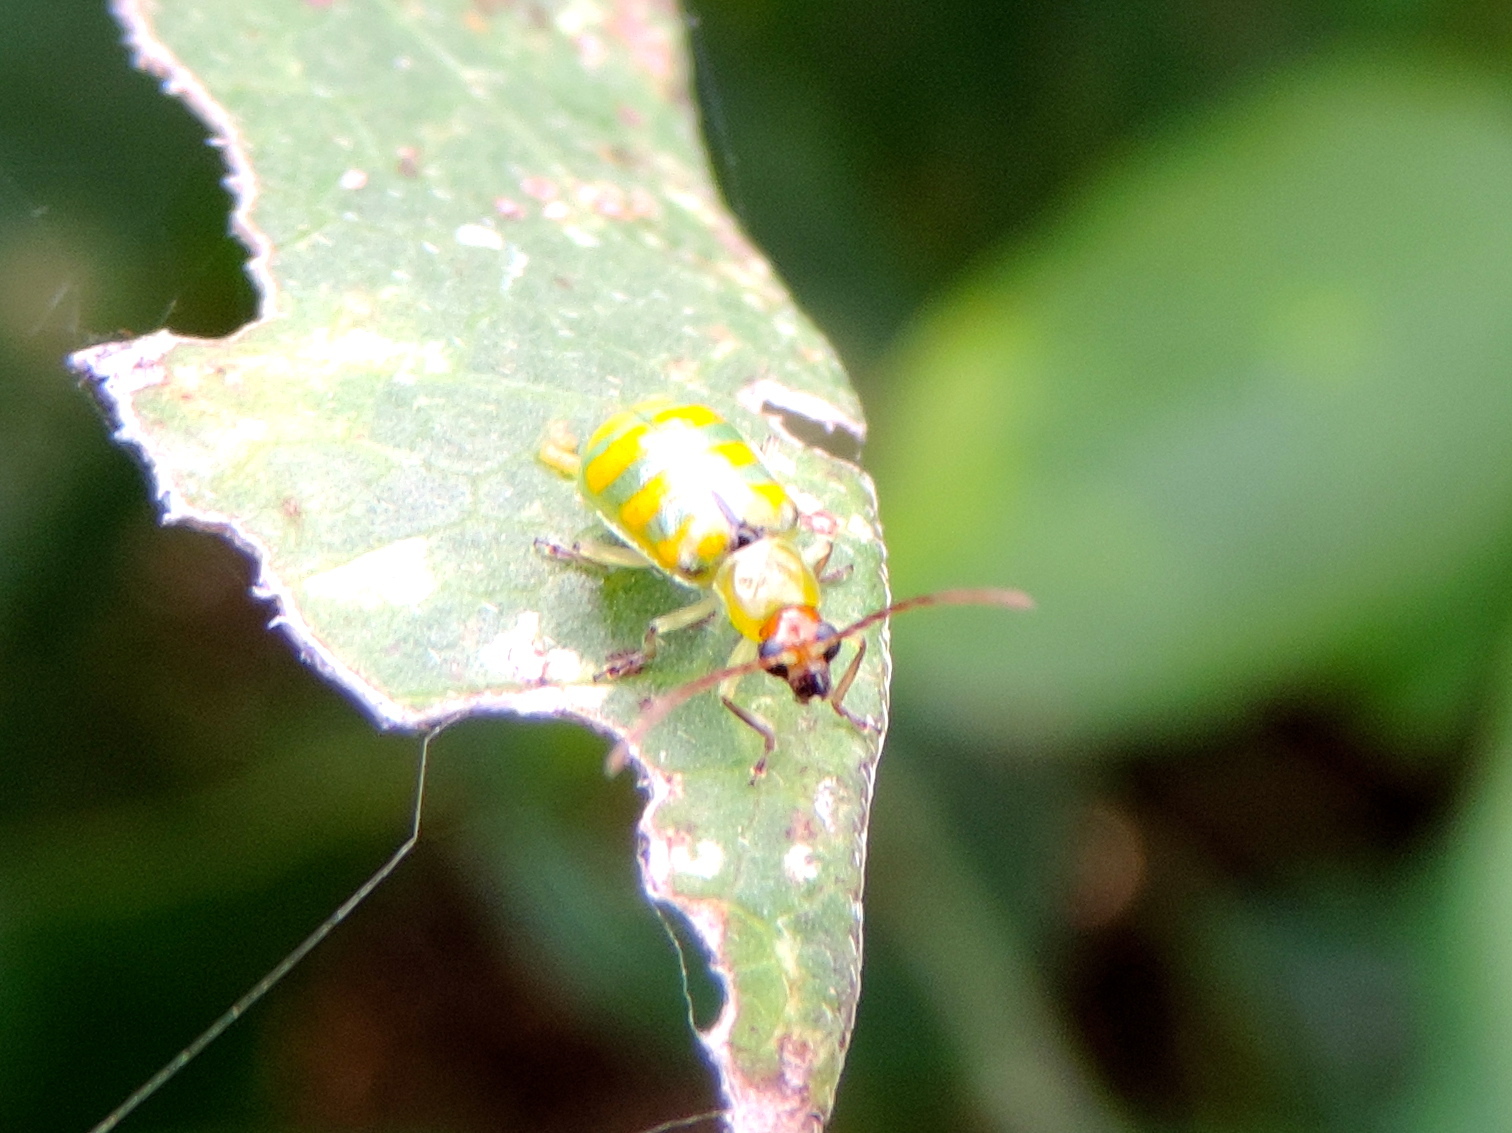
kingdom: Animalia
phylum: Arthropoda
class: Insecta
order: Coleoptera
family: Chrysomelidae
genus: Diabrotica
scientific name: Diabrotica balteata
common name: Leaf beetle
